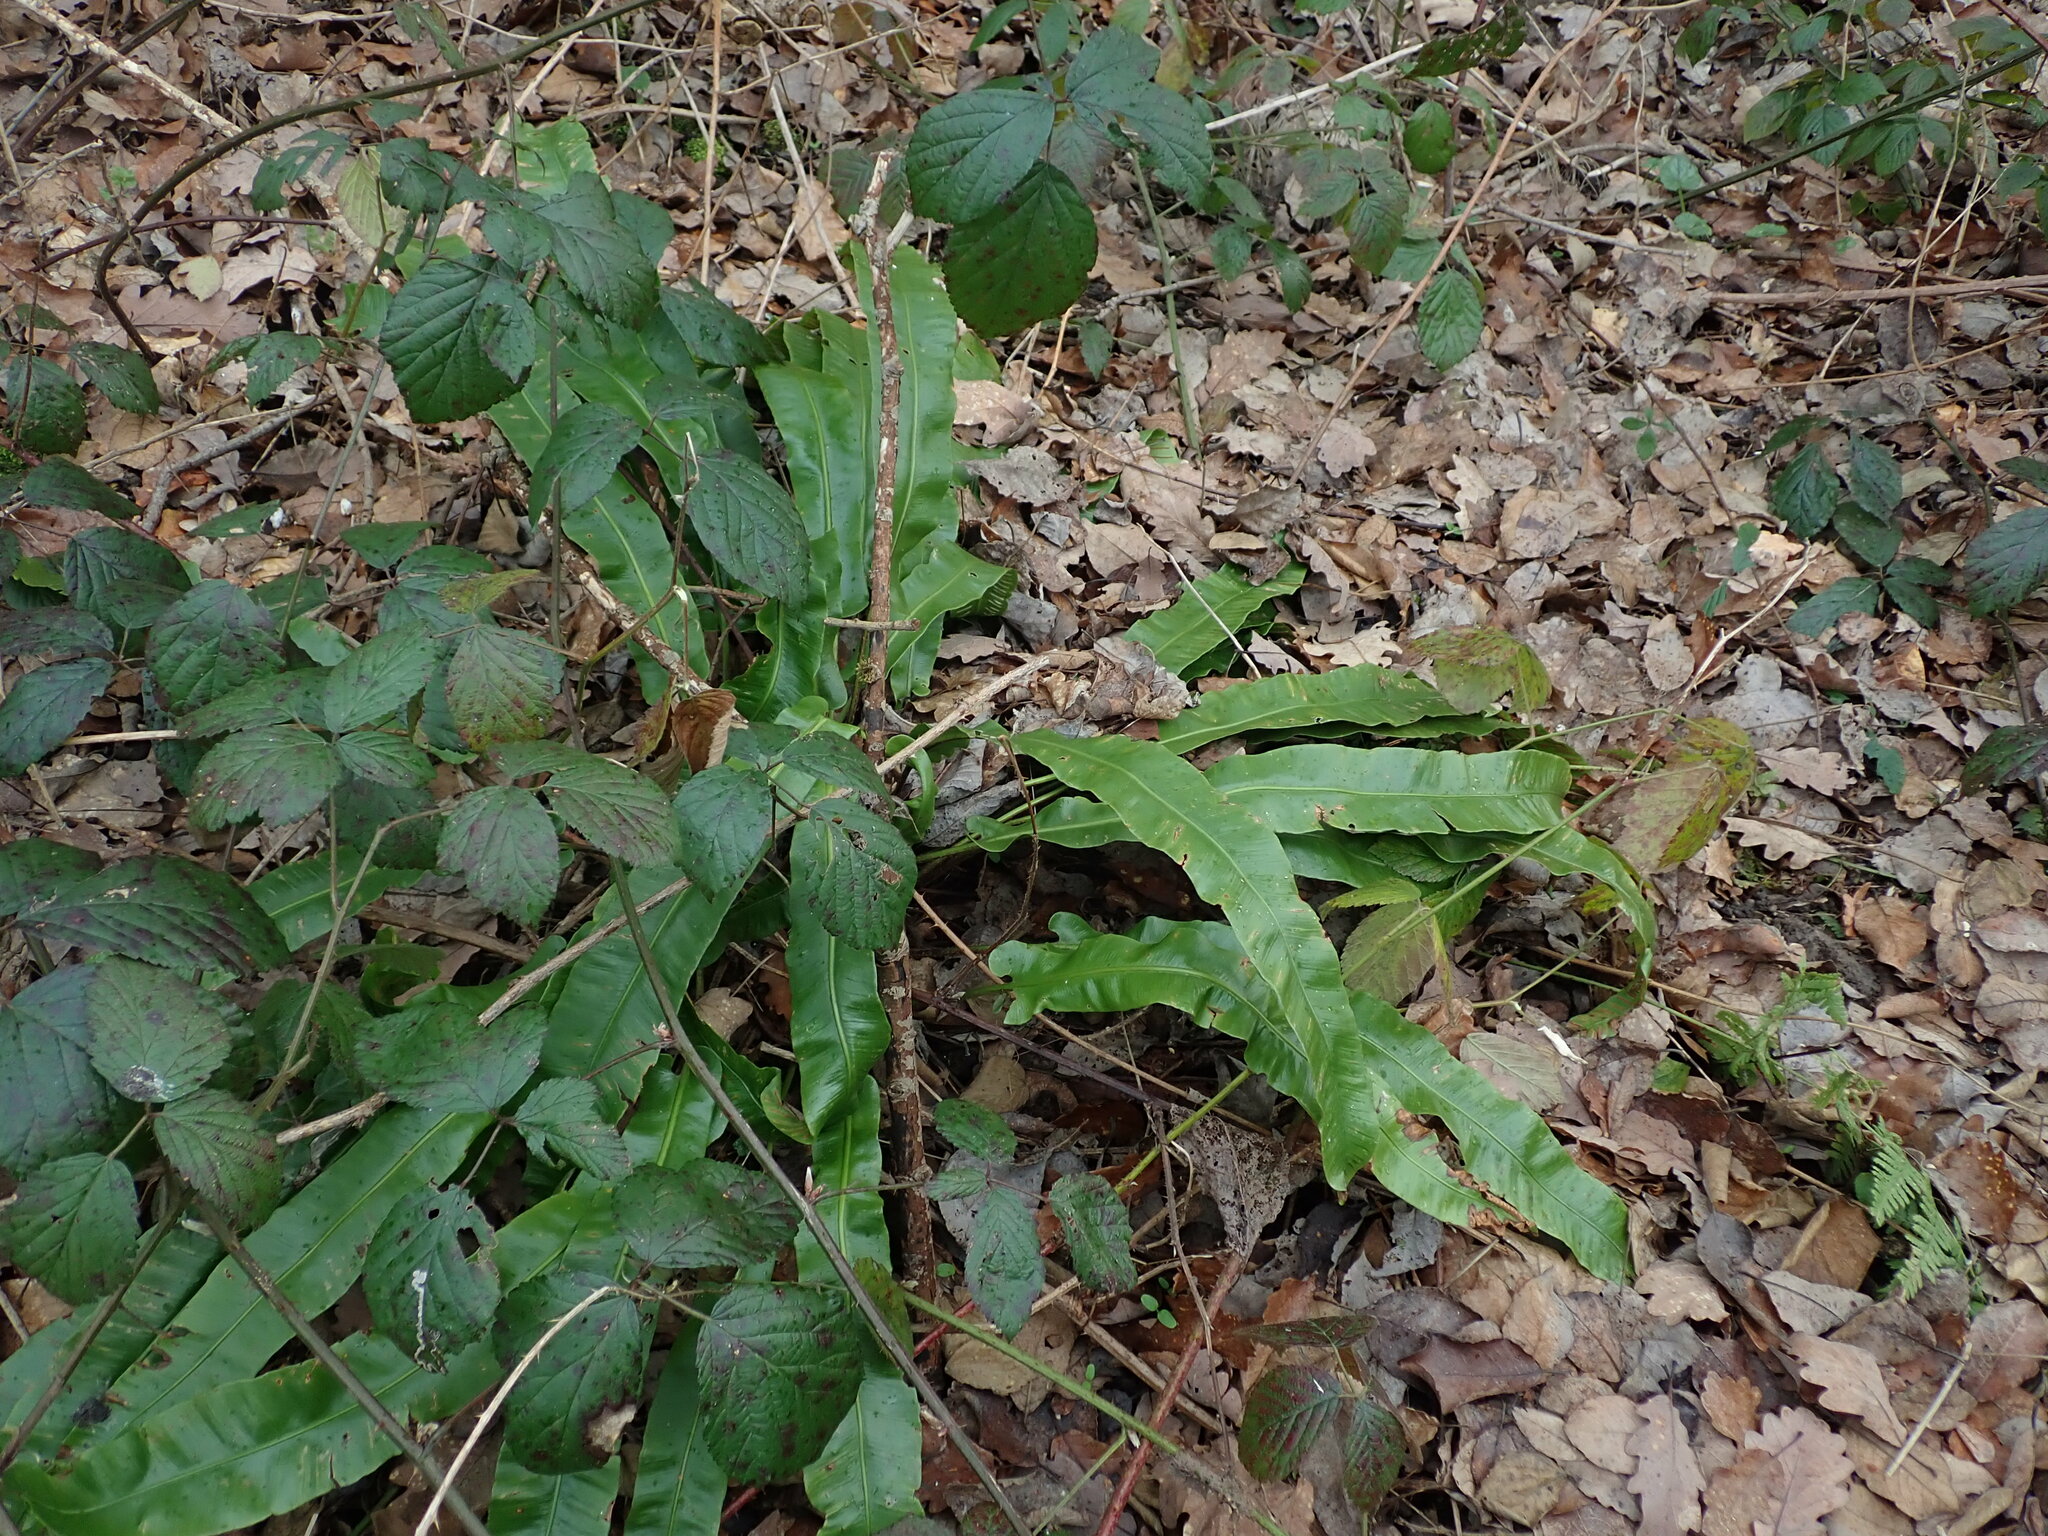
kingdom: Plantae
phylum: Tracheophyta
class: Polypodiopsida
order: Polypodiales
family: Aspleniaceae
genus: Asplenium
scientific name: Asplenium scolopendrium
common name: Hart's-tongue fern
